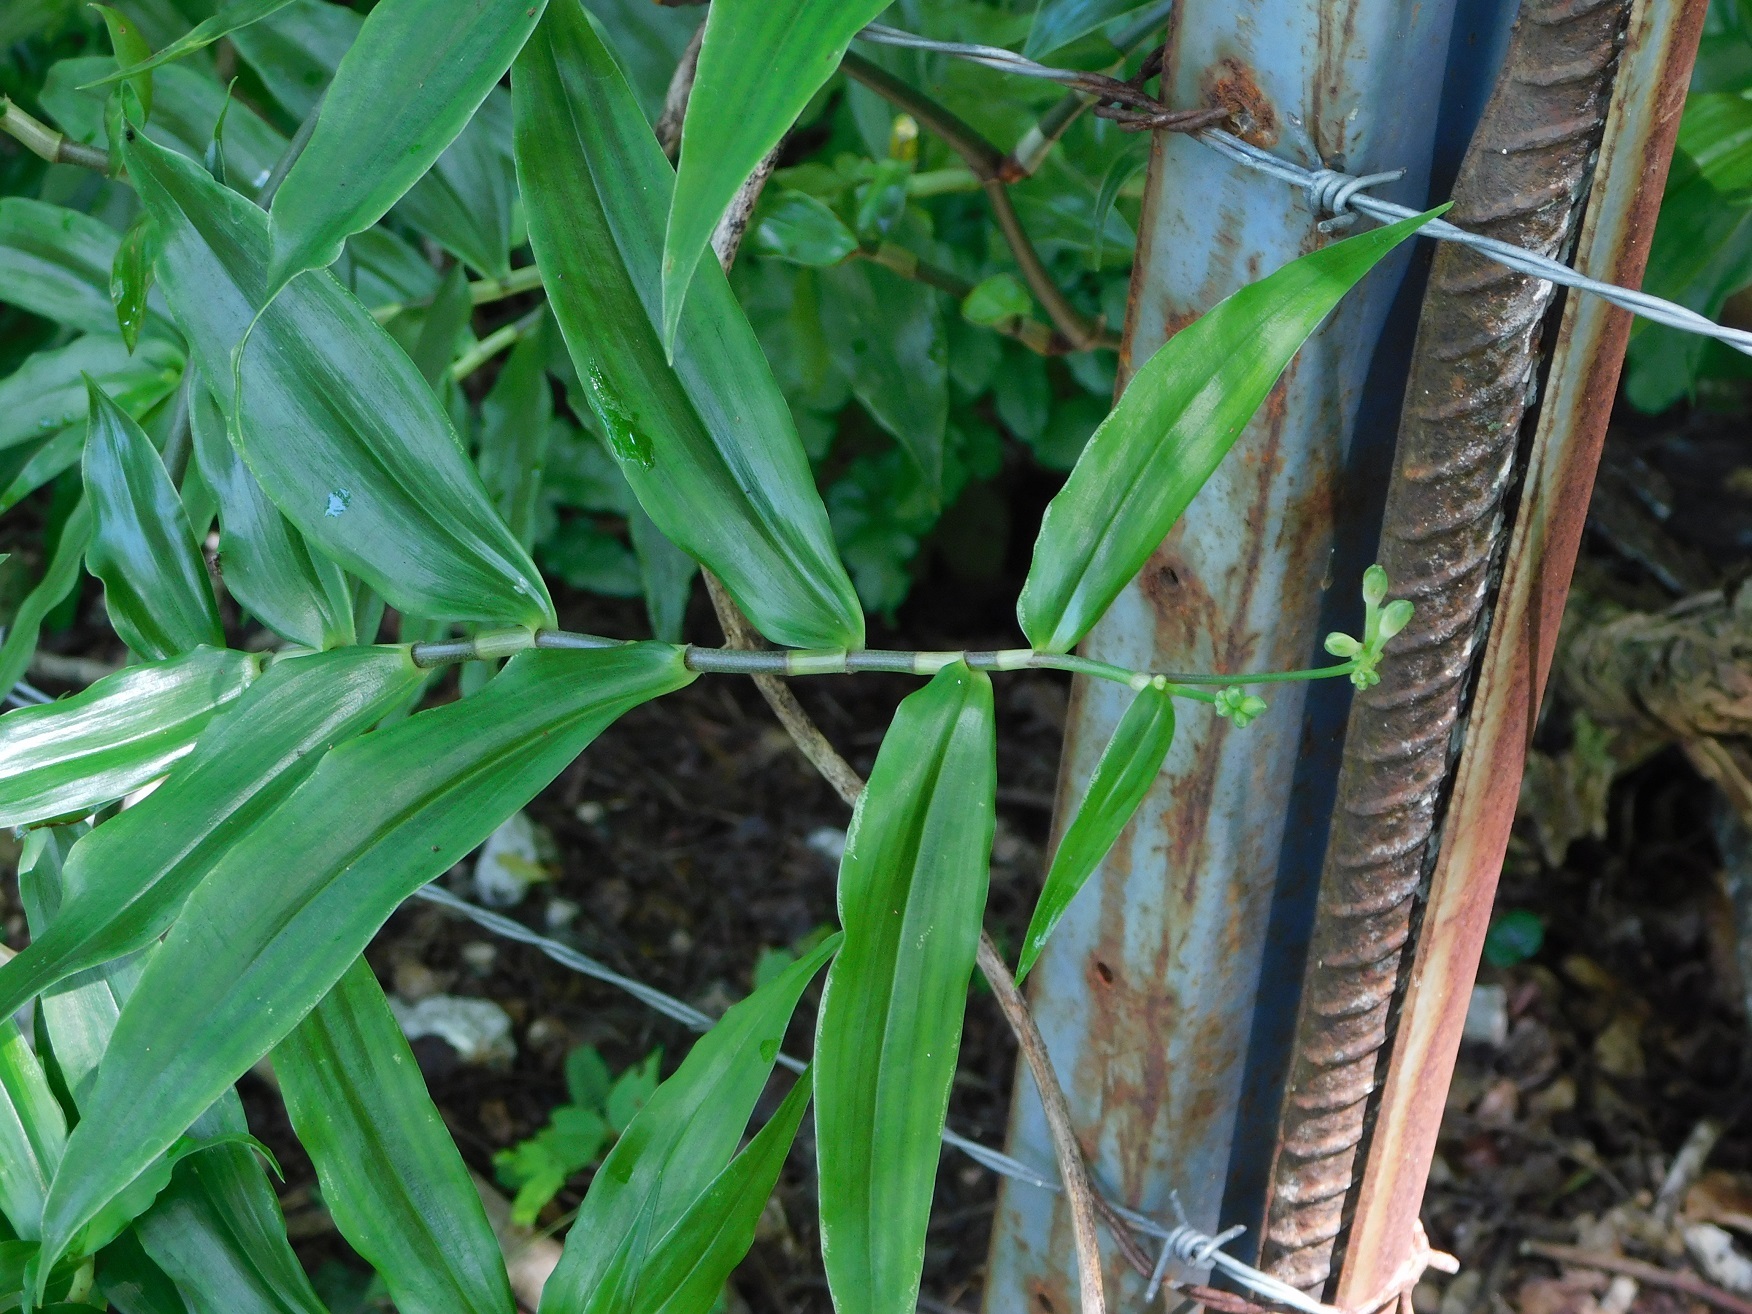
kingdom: Plantae
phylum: Tracheophyta
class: Liliopsida
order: Commelinales
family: Commelinaceae
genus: Callisia
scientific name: Callisia grandiflora
